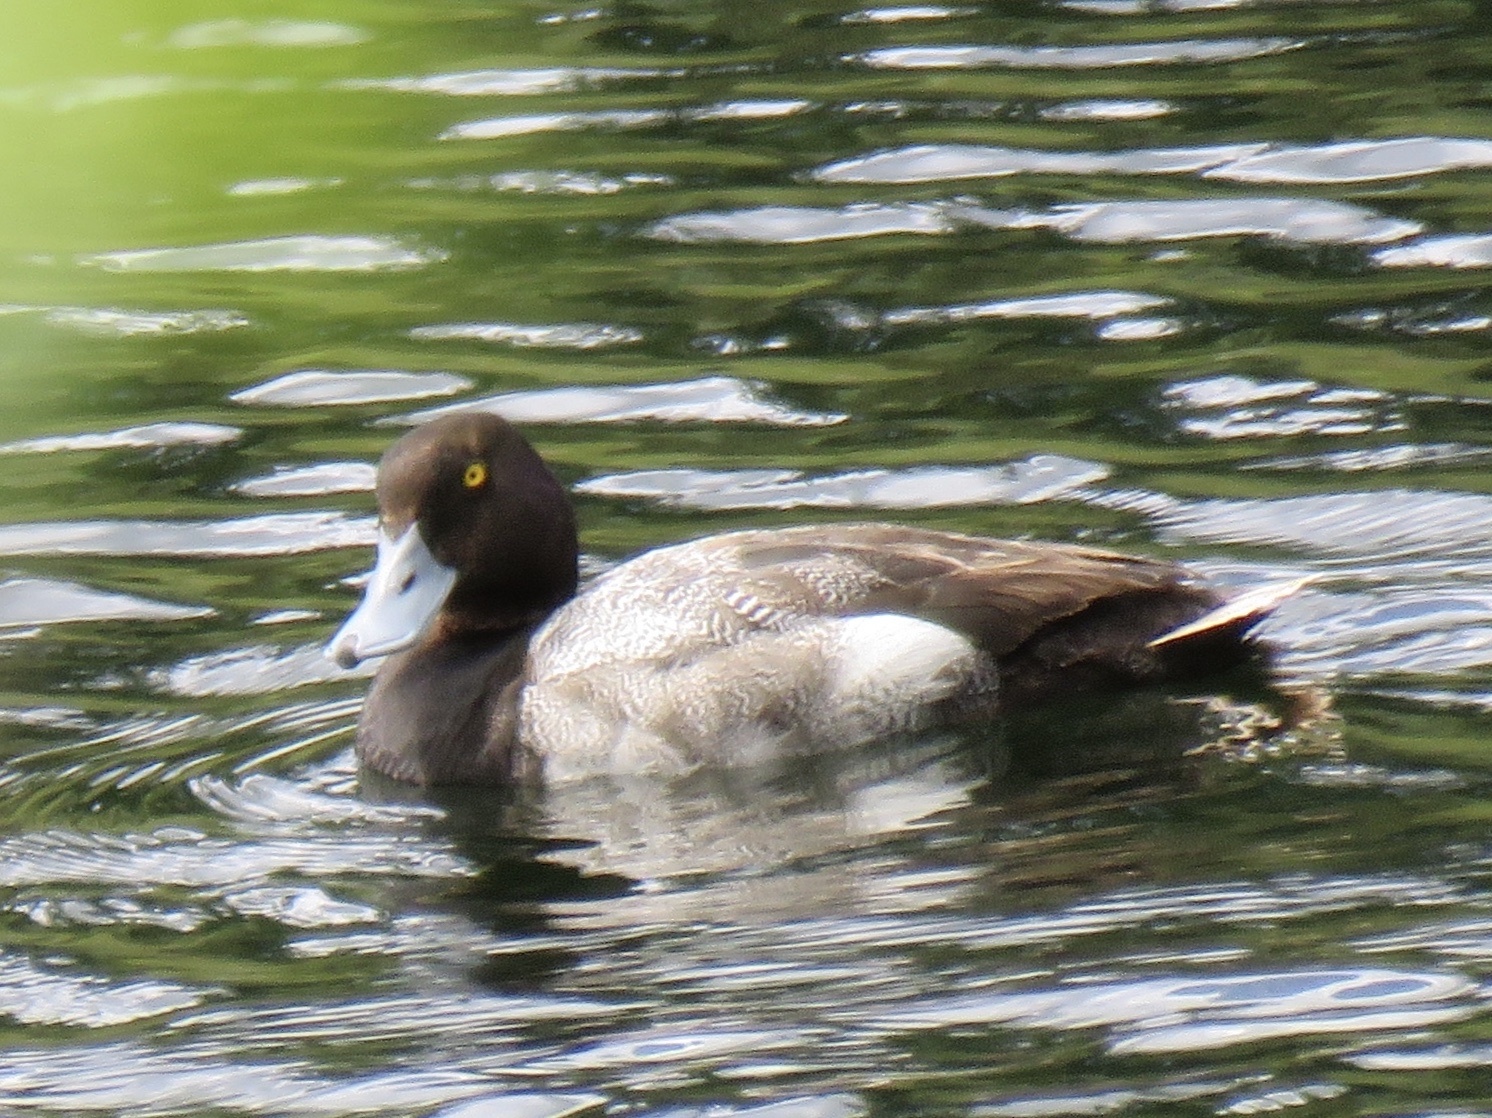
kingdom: Animalia
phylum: Chordata
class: Aves
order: Anseriformes
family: Anatidae
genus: Aythya
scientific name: Aythya affinis
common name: Lesser scaup
